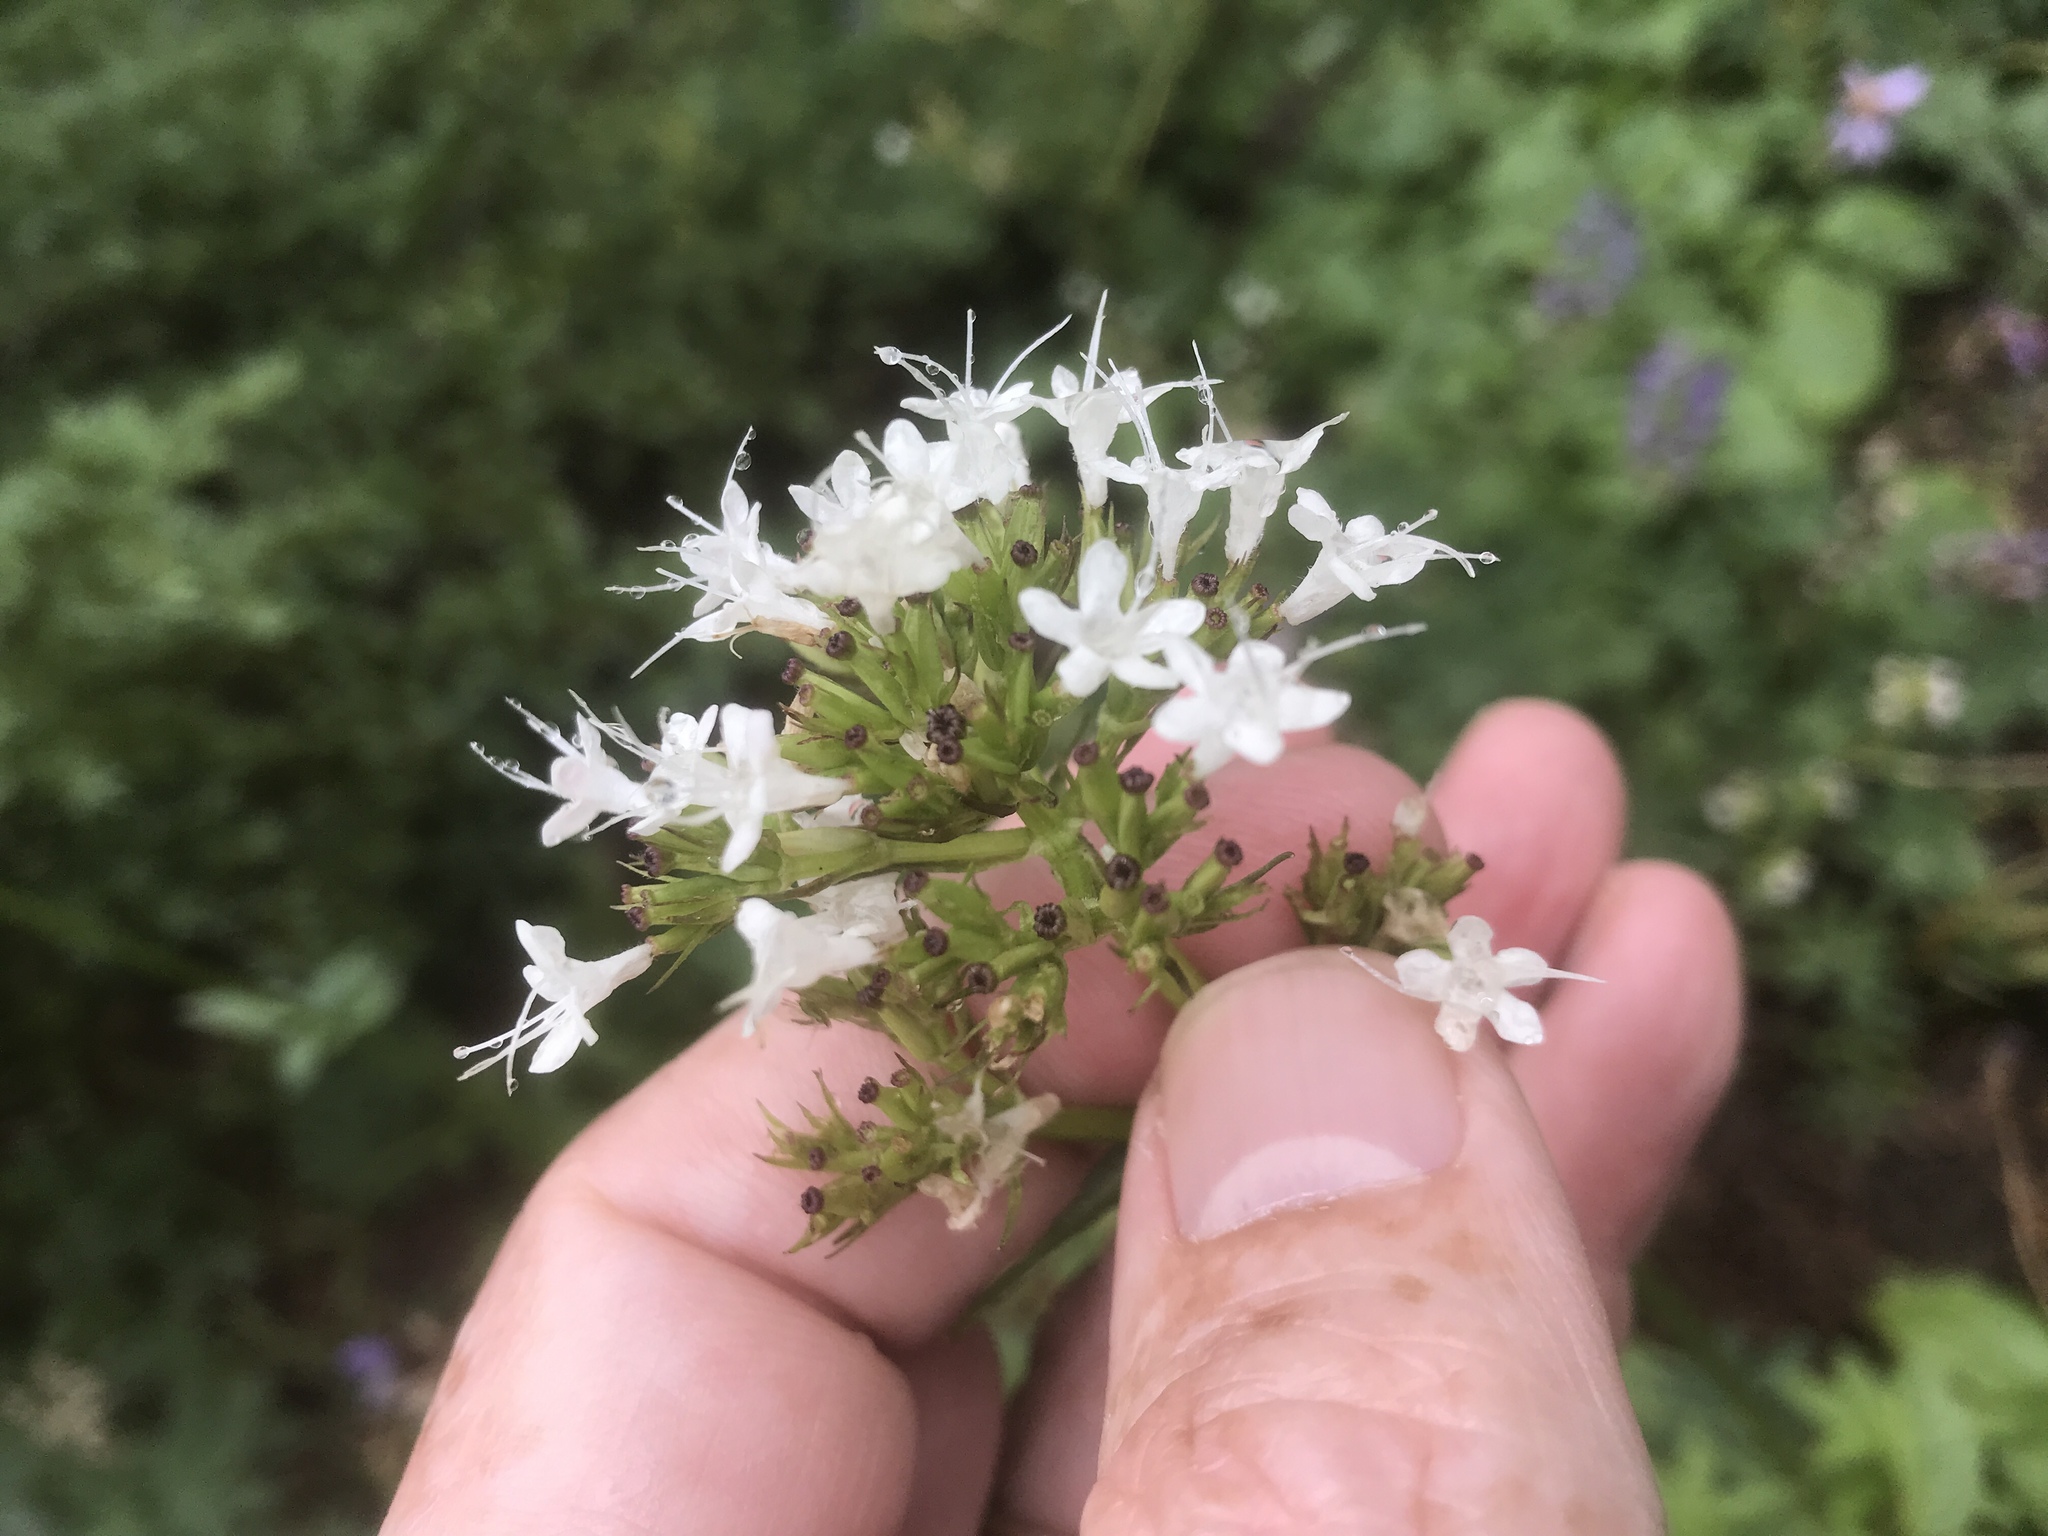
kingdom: Plantae
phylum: Tracheophyta
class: Magnoliopsida
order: Dipsacales
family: Caprifoliaceae
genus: Valeriana
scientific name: Valeriana sitchensis
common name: Pacific valerian
